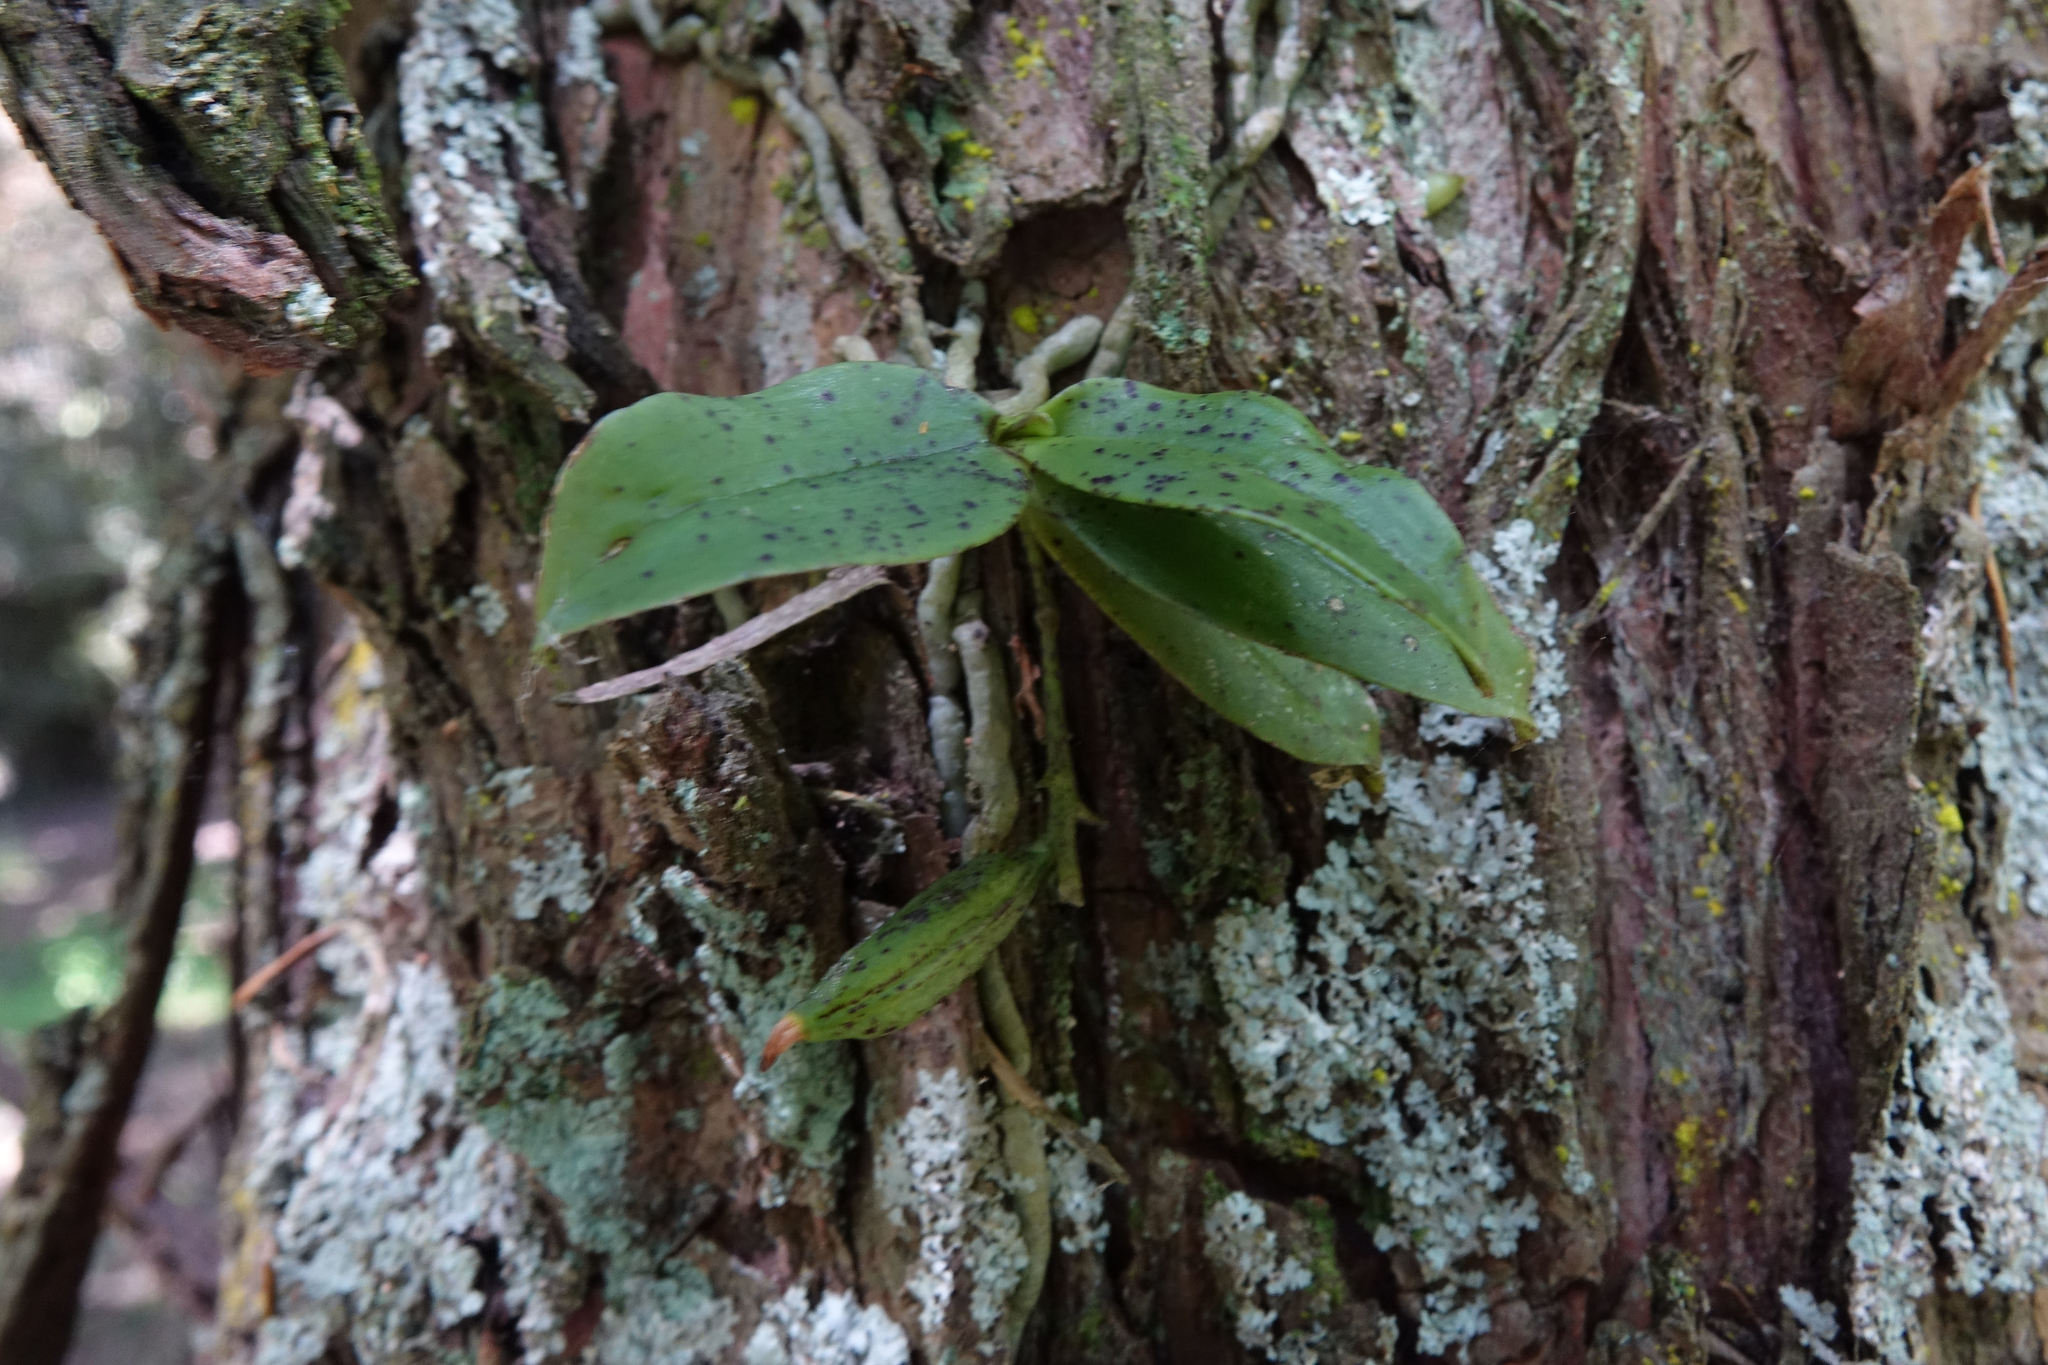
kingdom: Plantae
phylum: Tracheophyta
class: Liliopsida
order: Asparagales
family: Orchidaceae
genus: Drymoanthus
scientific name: Drymoanthus flavus
